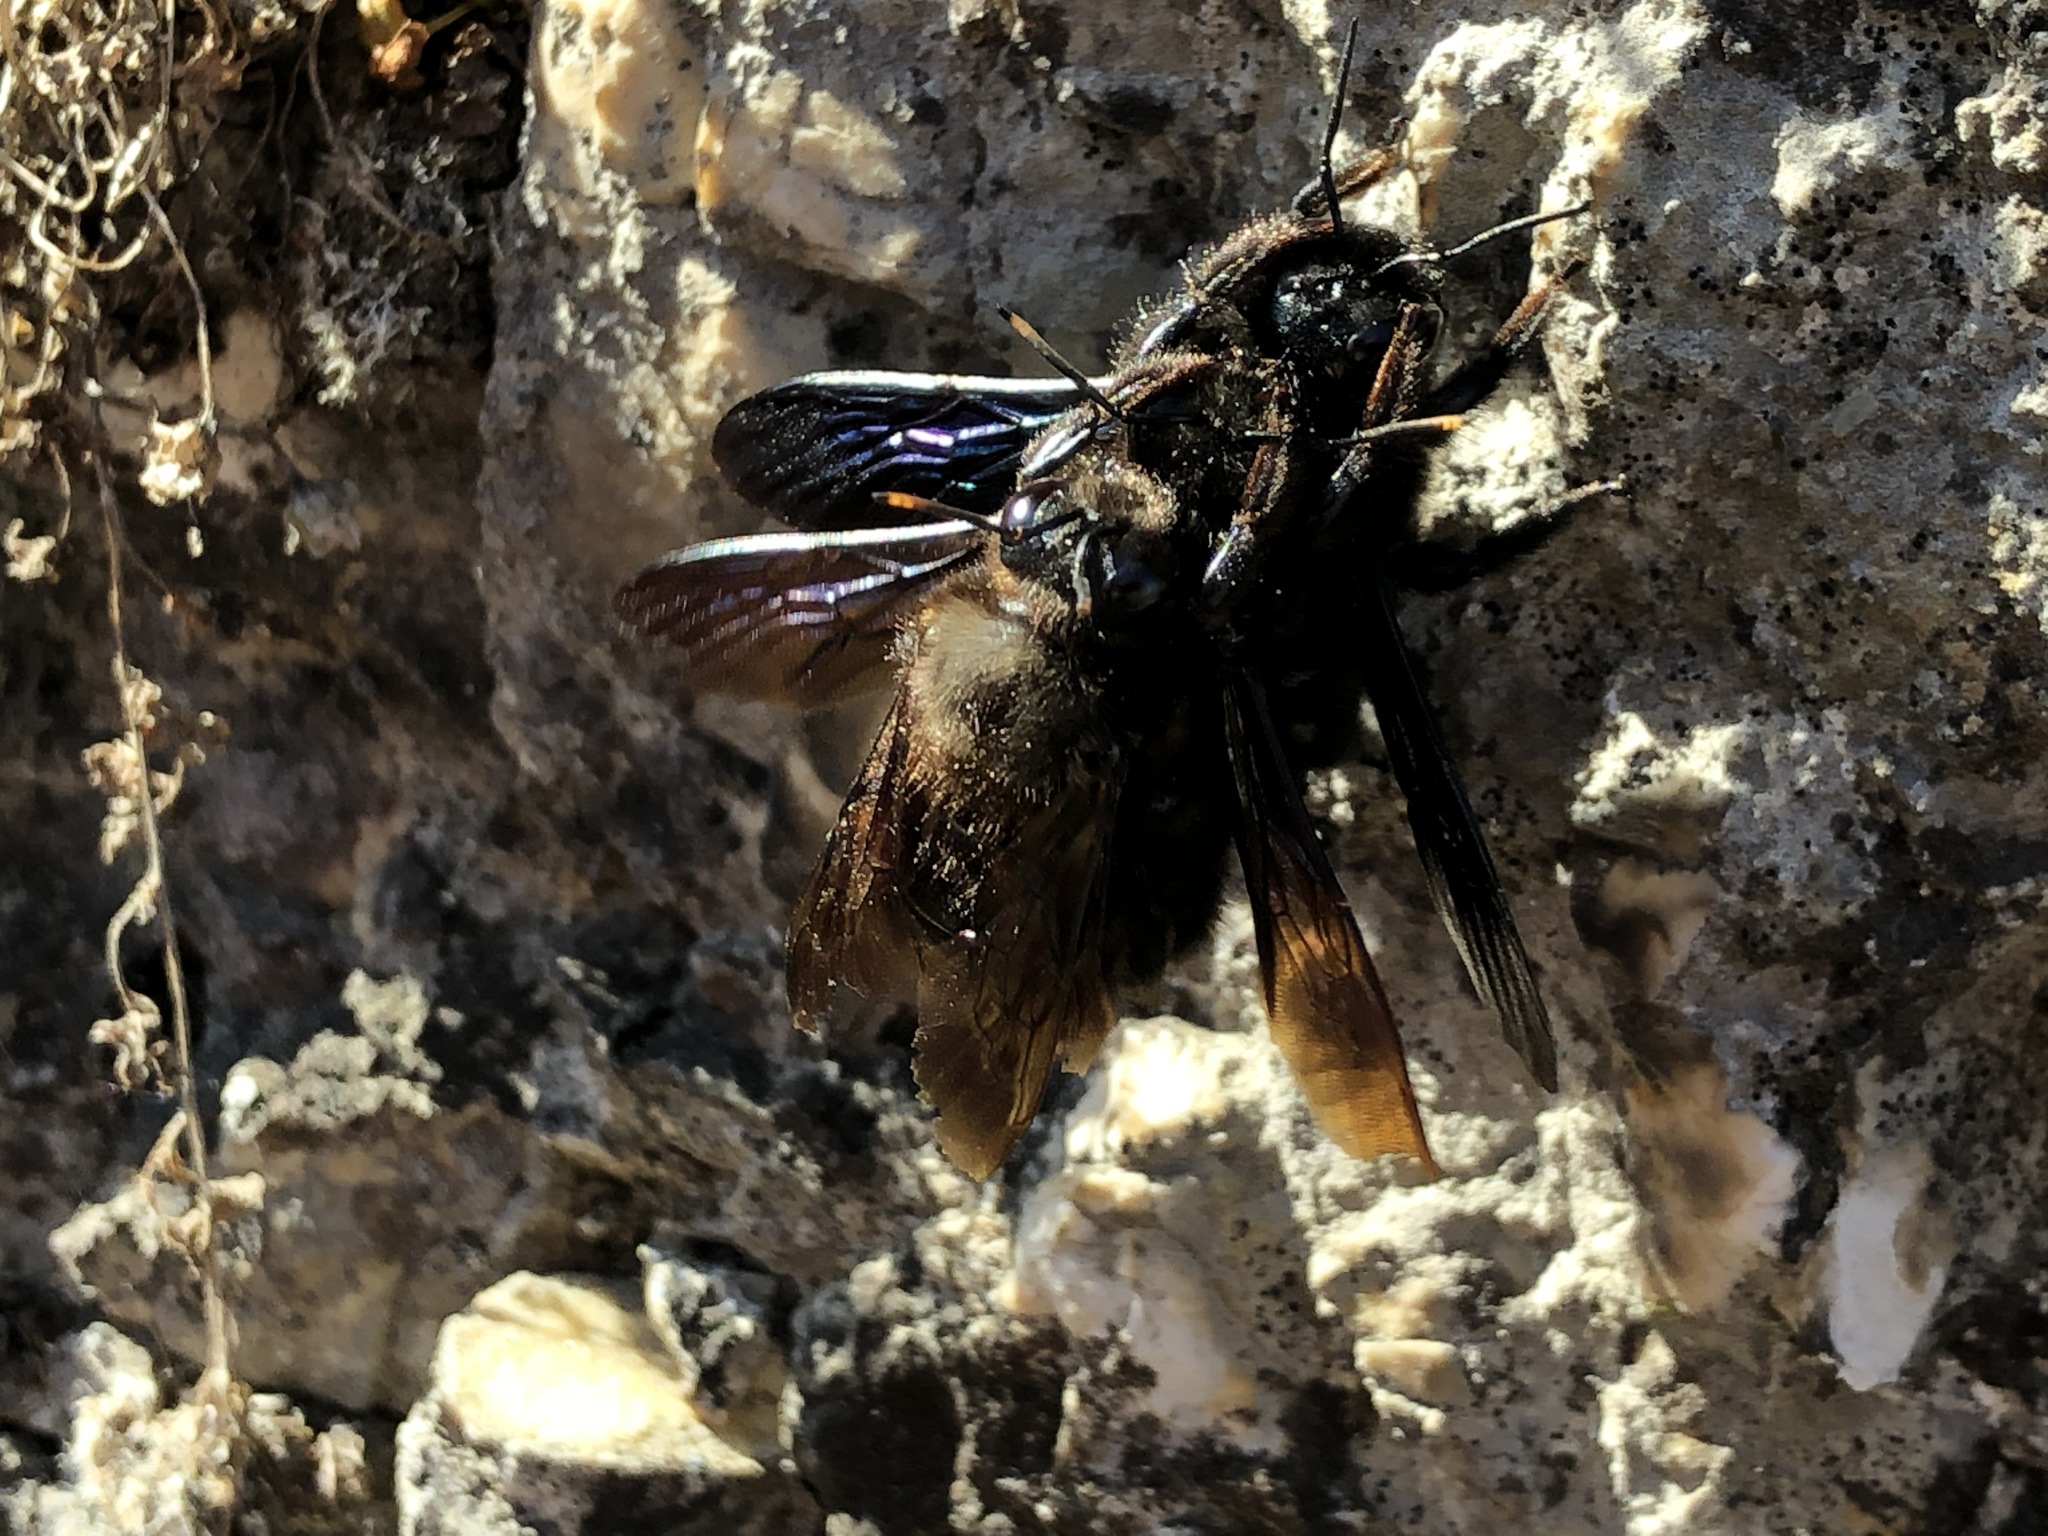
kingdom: Animalia
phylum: Arthropoda
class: Insecta
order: Hymenoptera
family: Apidae
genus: Xylocopa
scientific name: Xylocopa violacea
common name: Violet carpenter bee
